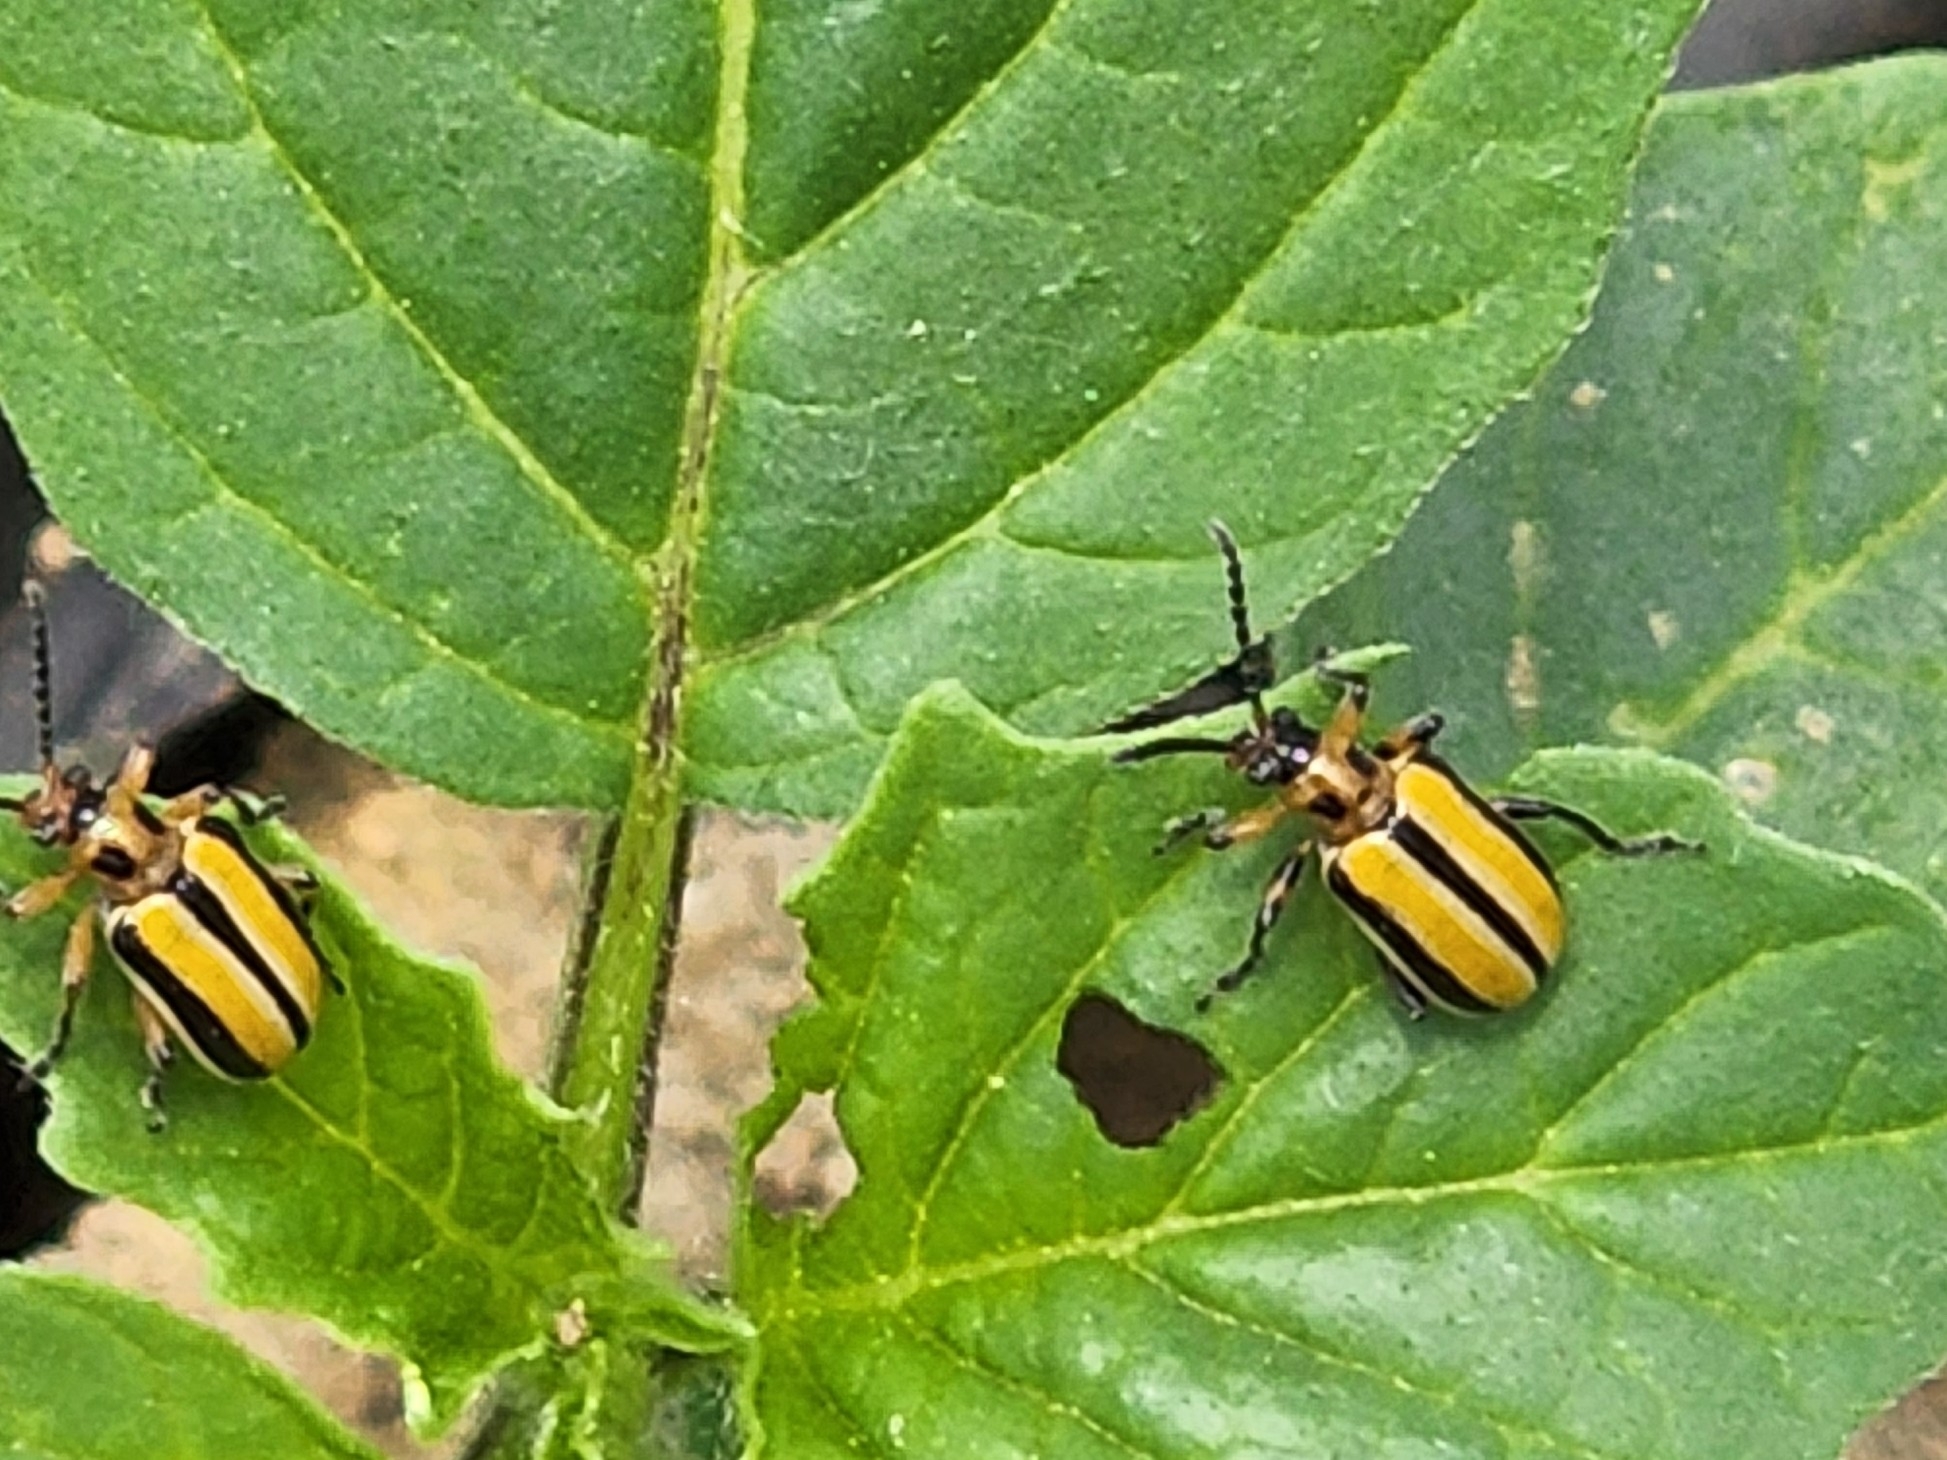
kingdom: Animalia
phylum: Arthropoda
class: Insecta
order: Coleoptera
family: Chrysomelidae
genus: Lema
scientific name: Lema daturaphila
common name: Leaf beetle
